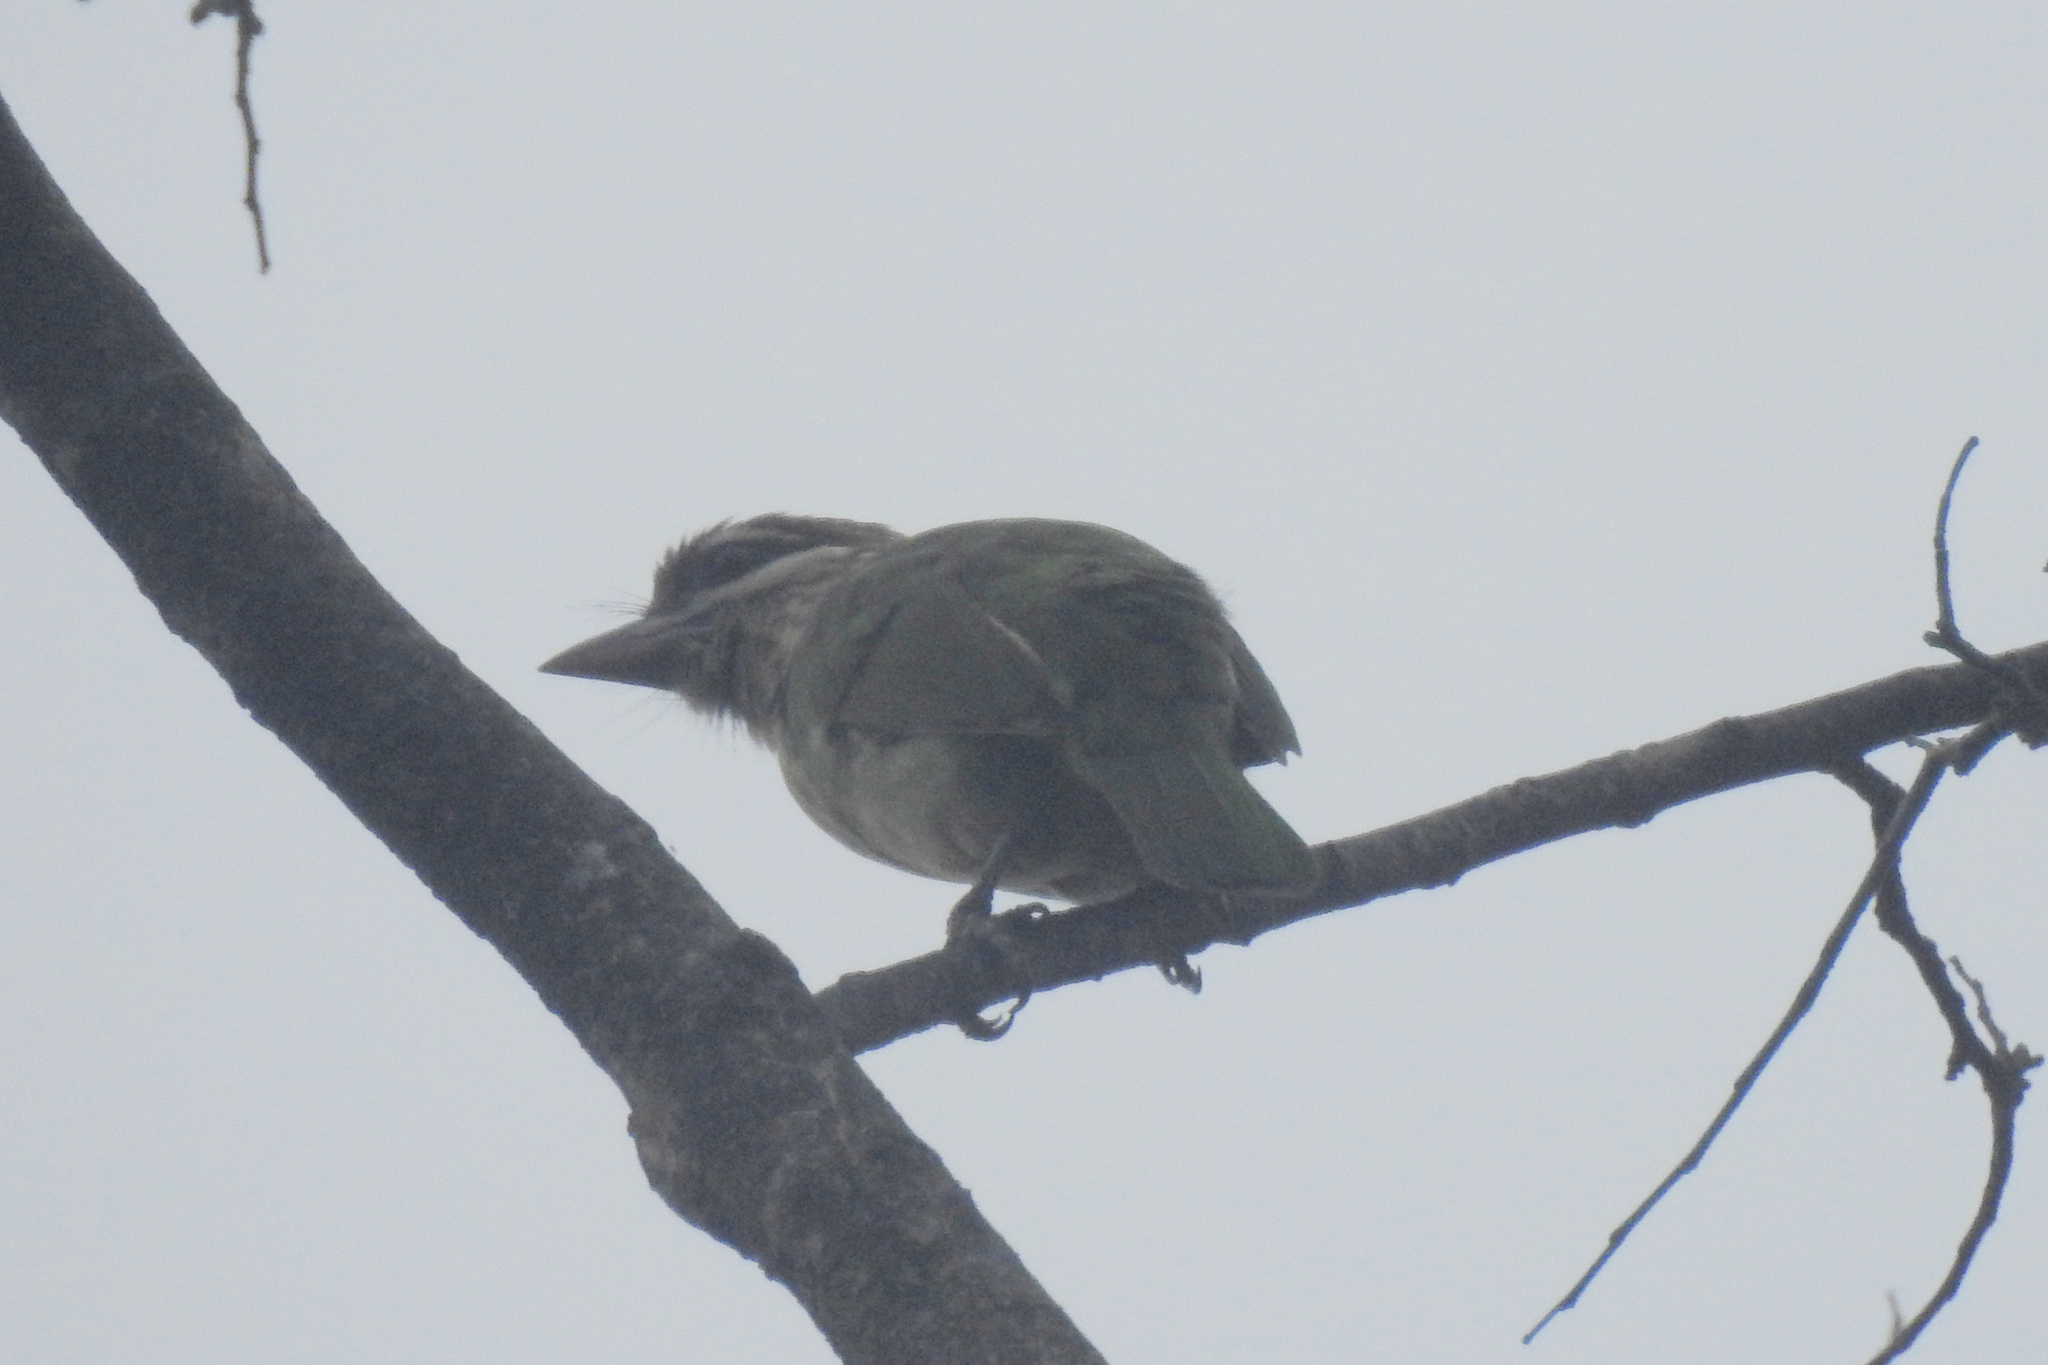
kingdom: Animalia
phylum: Chordata
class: Aves
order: Piciformes
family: Megalaimidae
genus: Psilopogon
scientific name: Psilopogon viridis
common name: White-cheeked barbet
